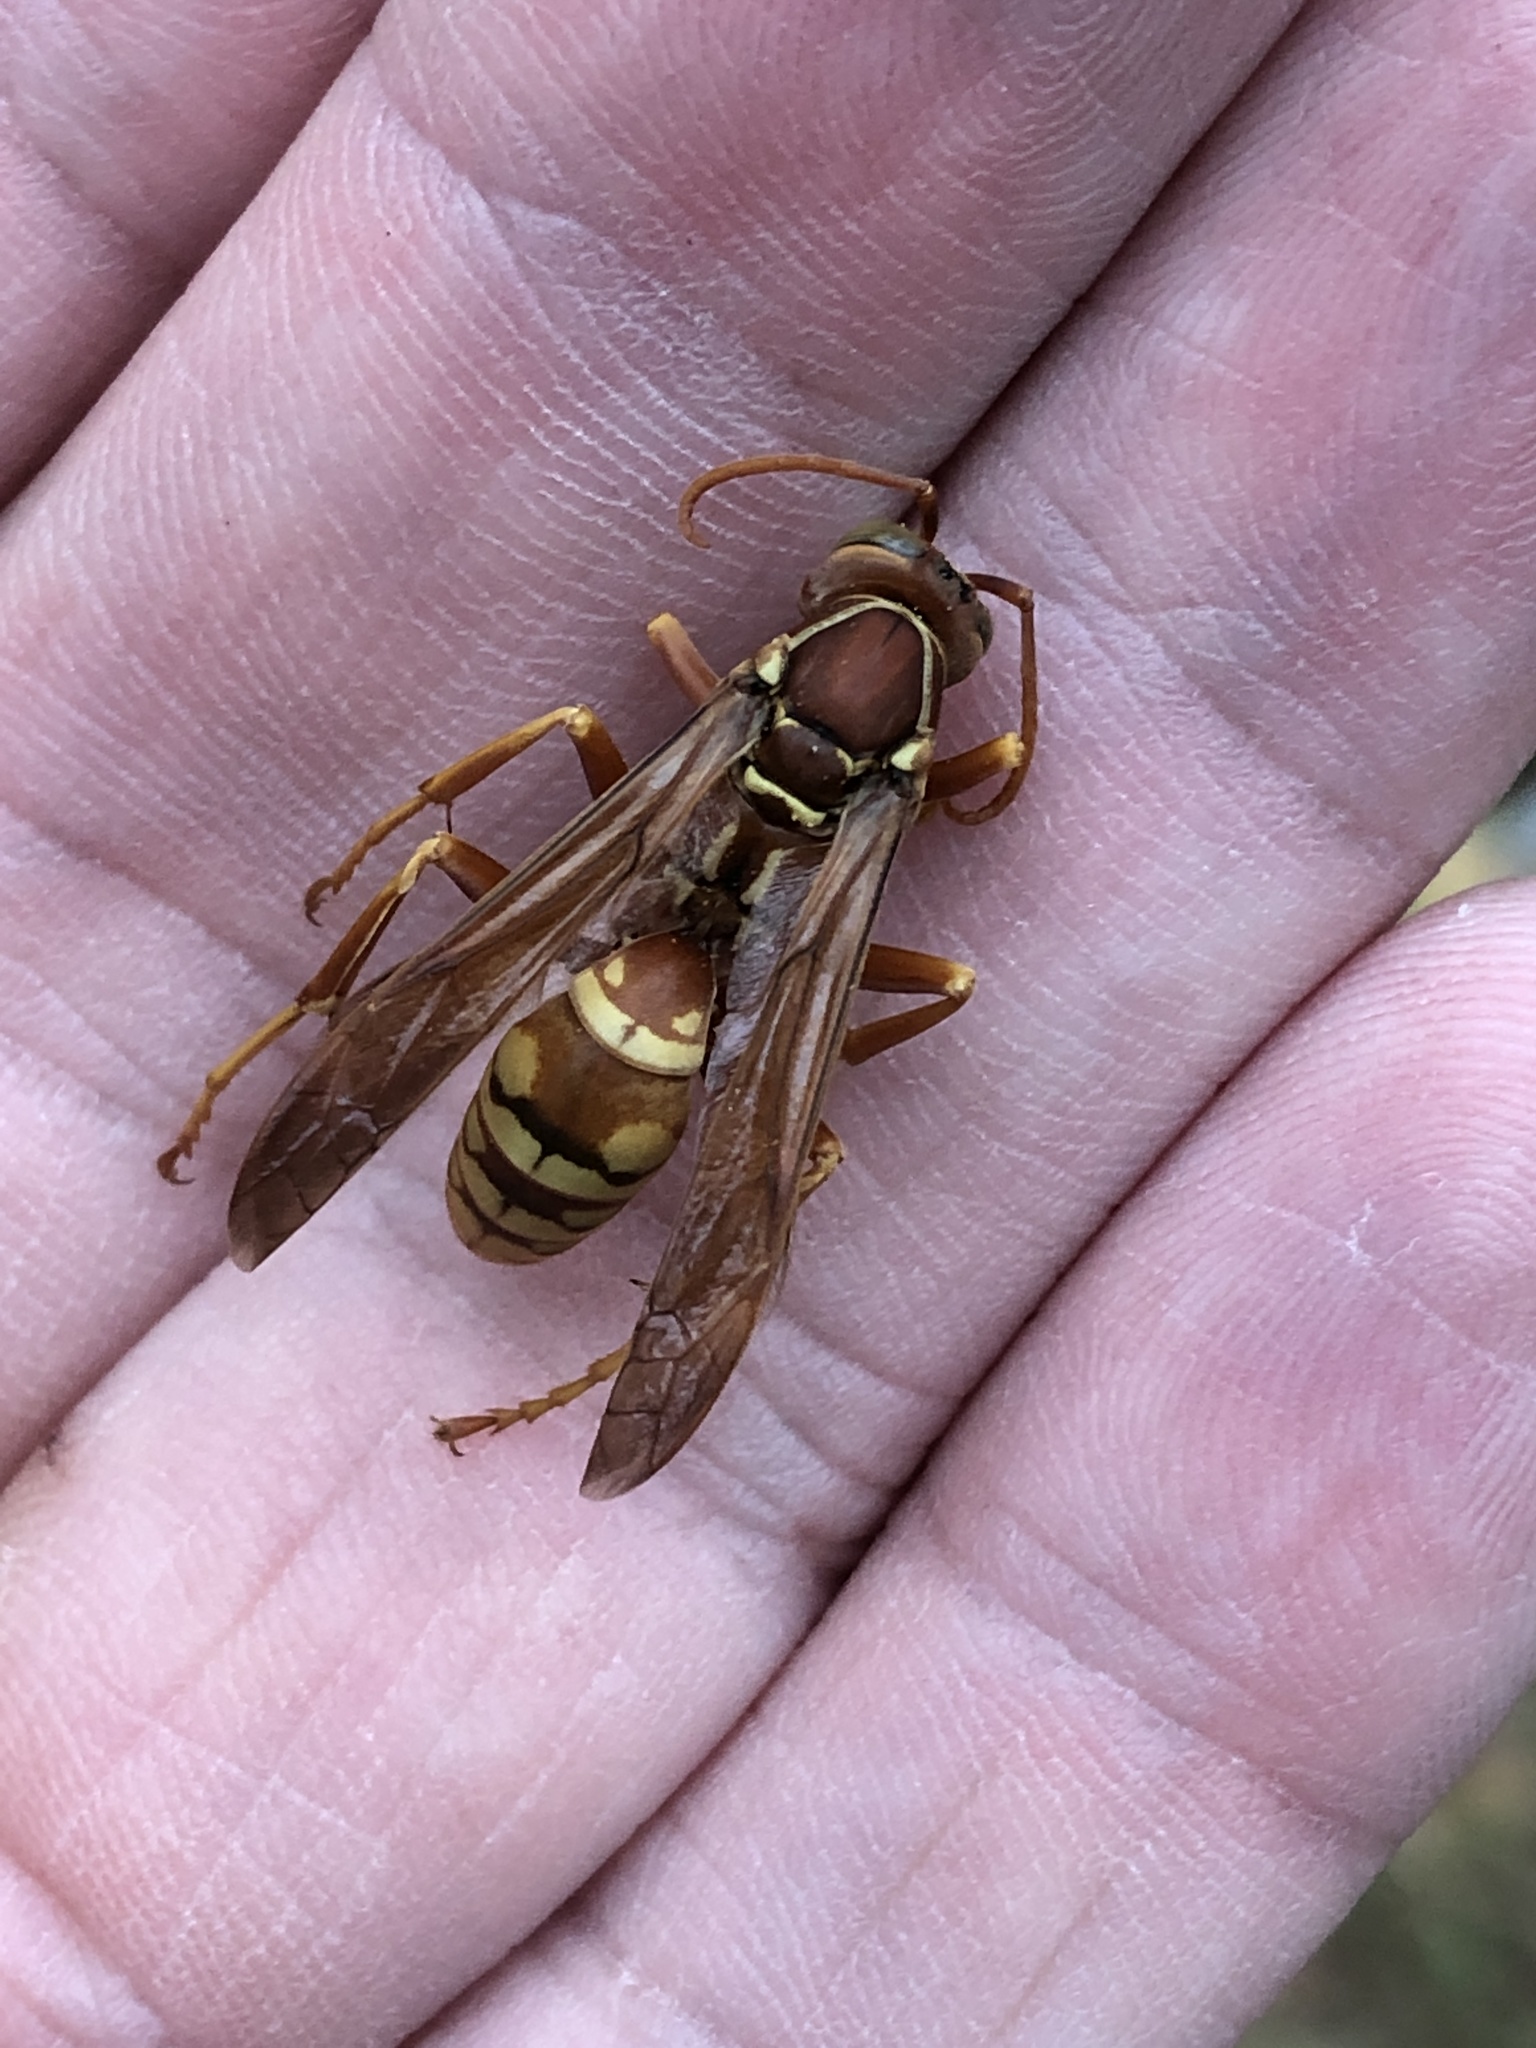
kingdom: Animalia
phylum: Arthropoda
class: Insecta
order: Hymenoptera
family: Eumenidae
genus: Polistes
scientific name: Polistes apachus
